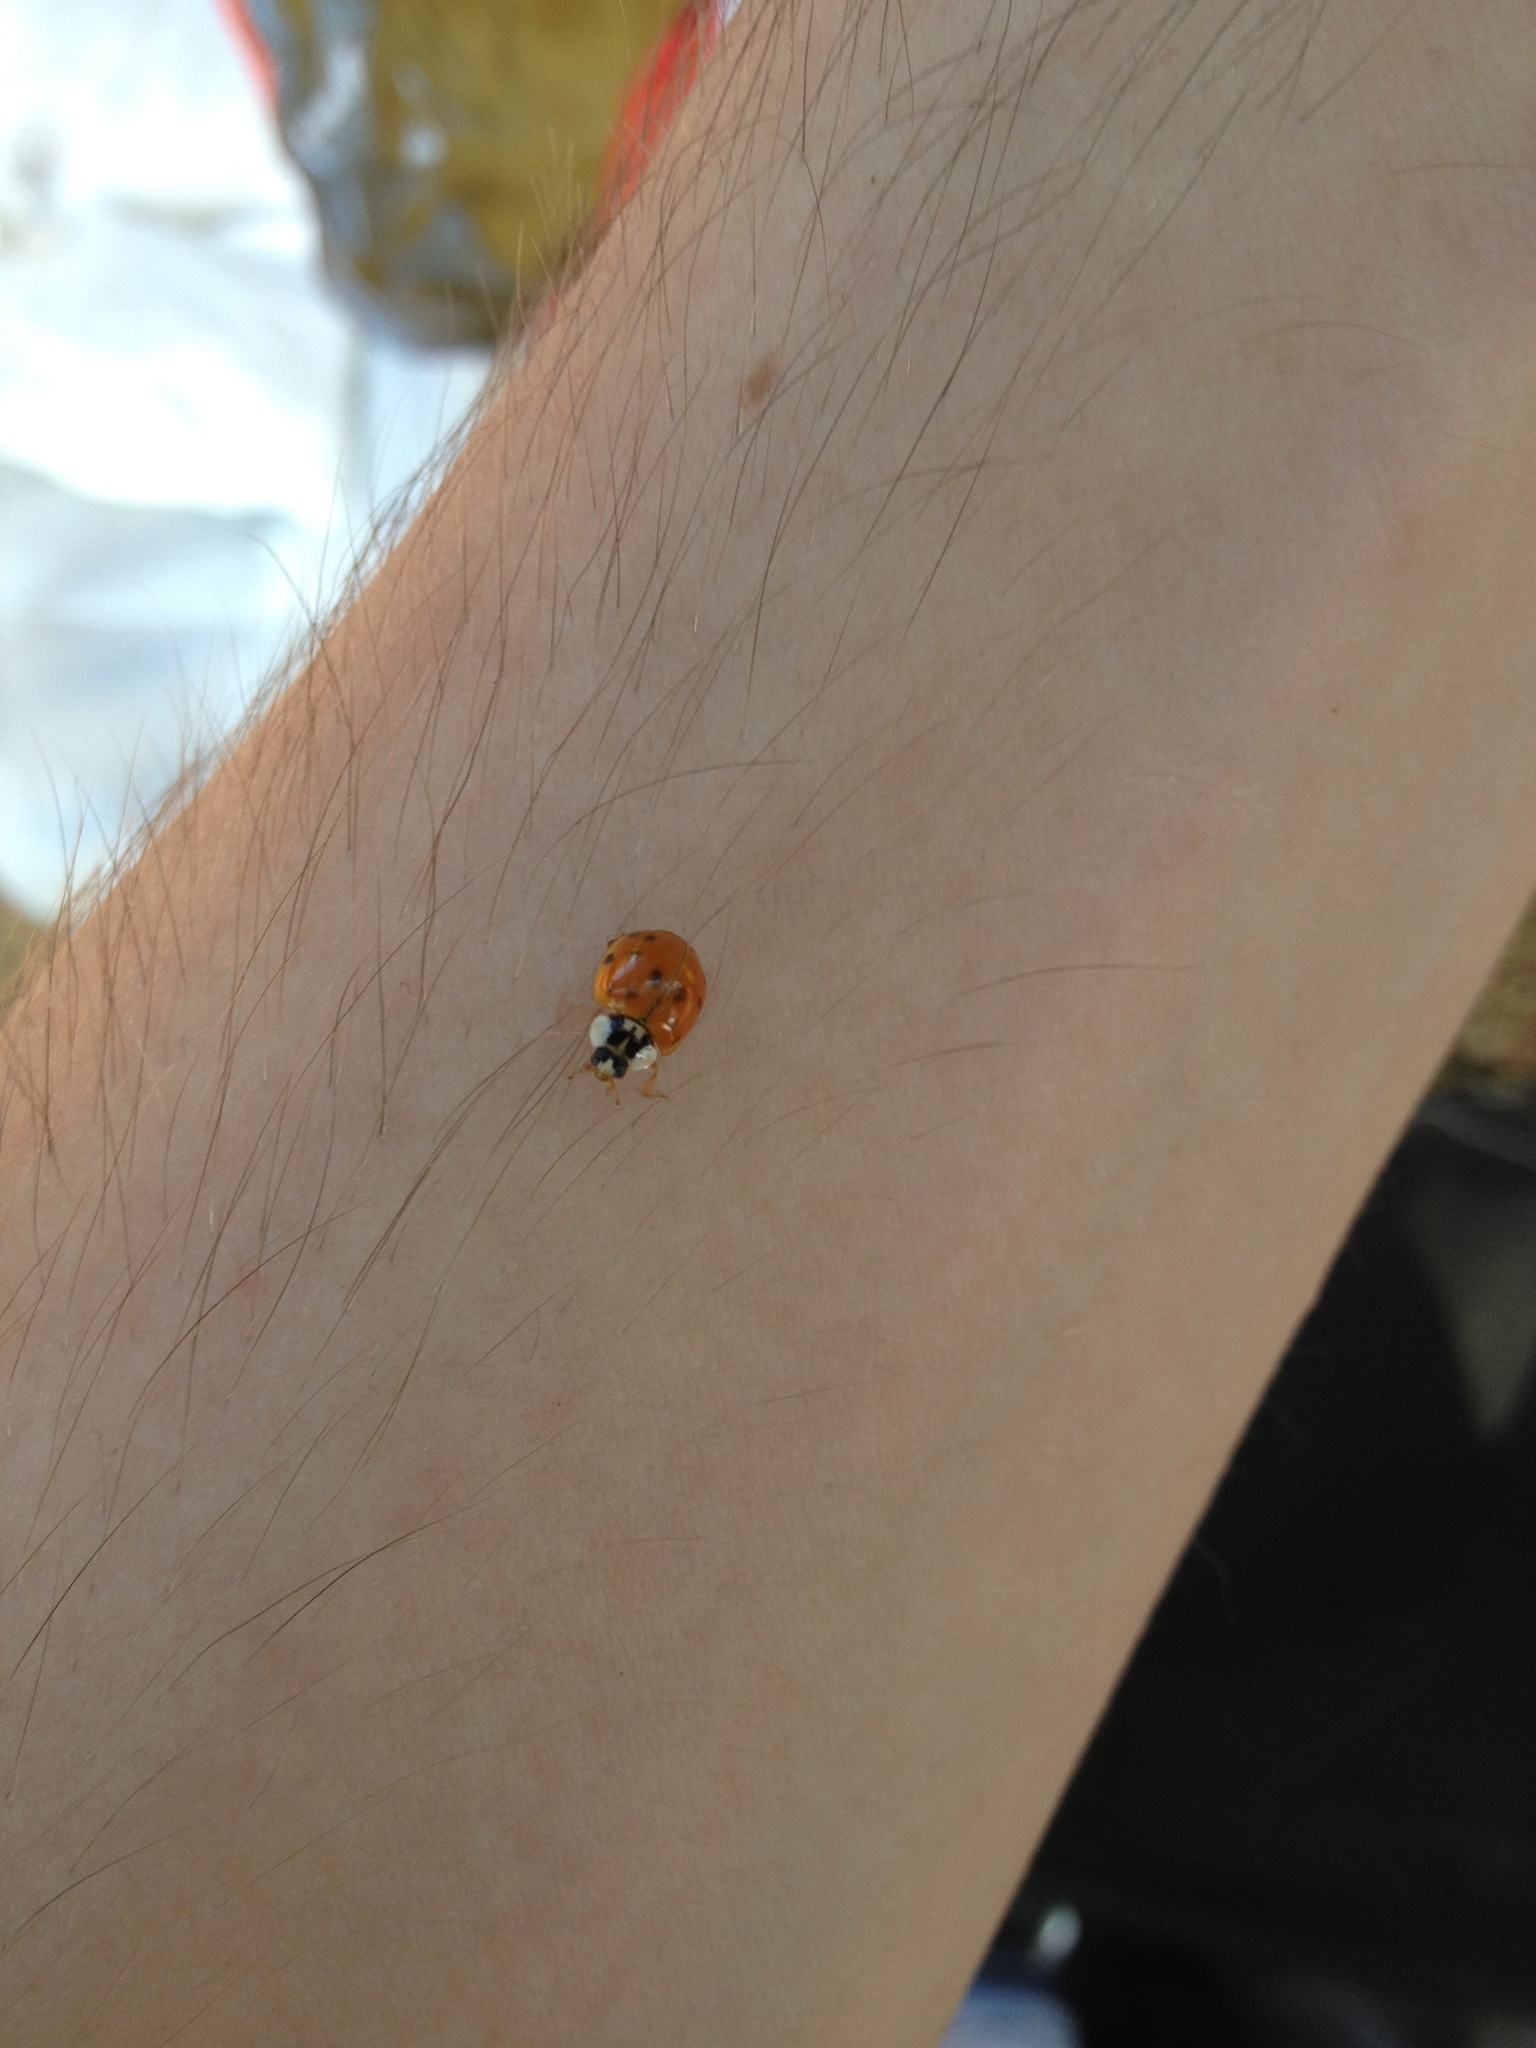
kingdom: Animalia
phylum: Arthropoda
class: Insecta
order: Coleoptera
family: Coccinellidae
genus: Harmonia
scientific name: Harmonia axyridis
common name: Harlequin ladybird
